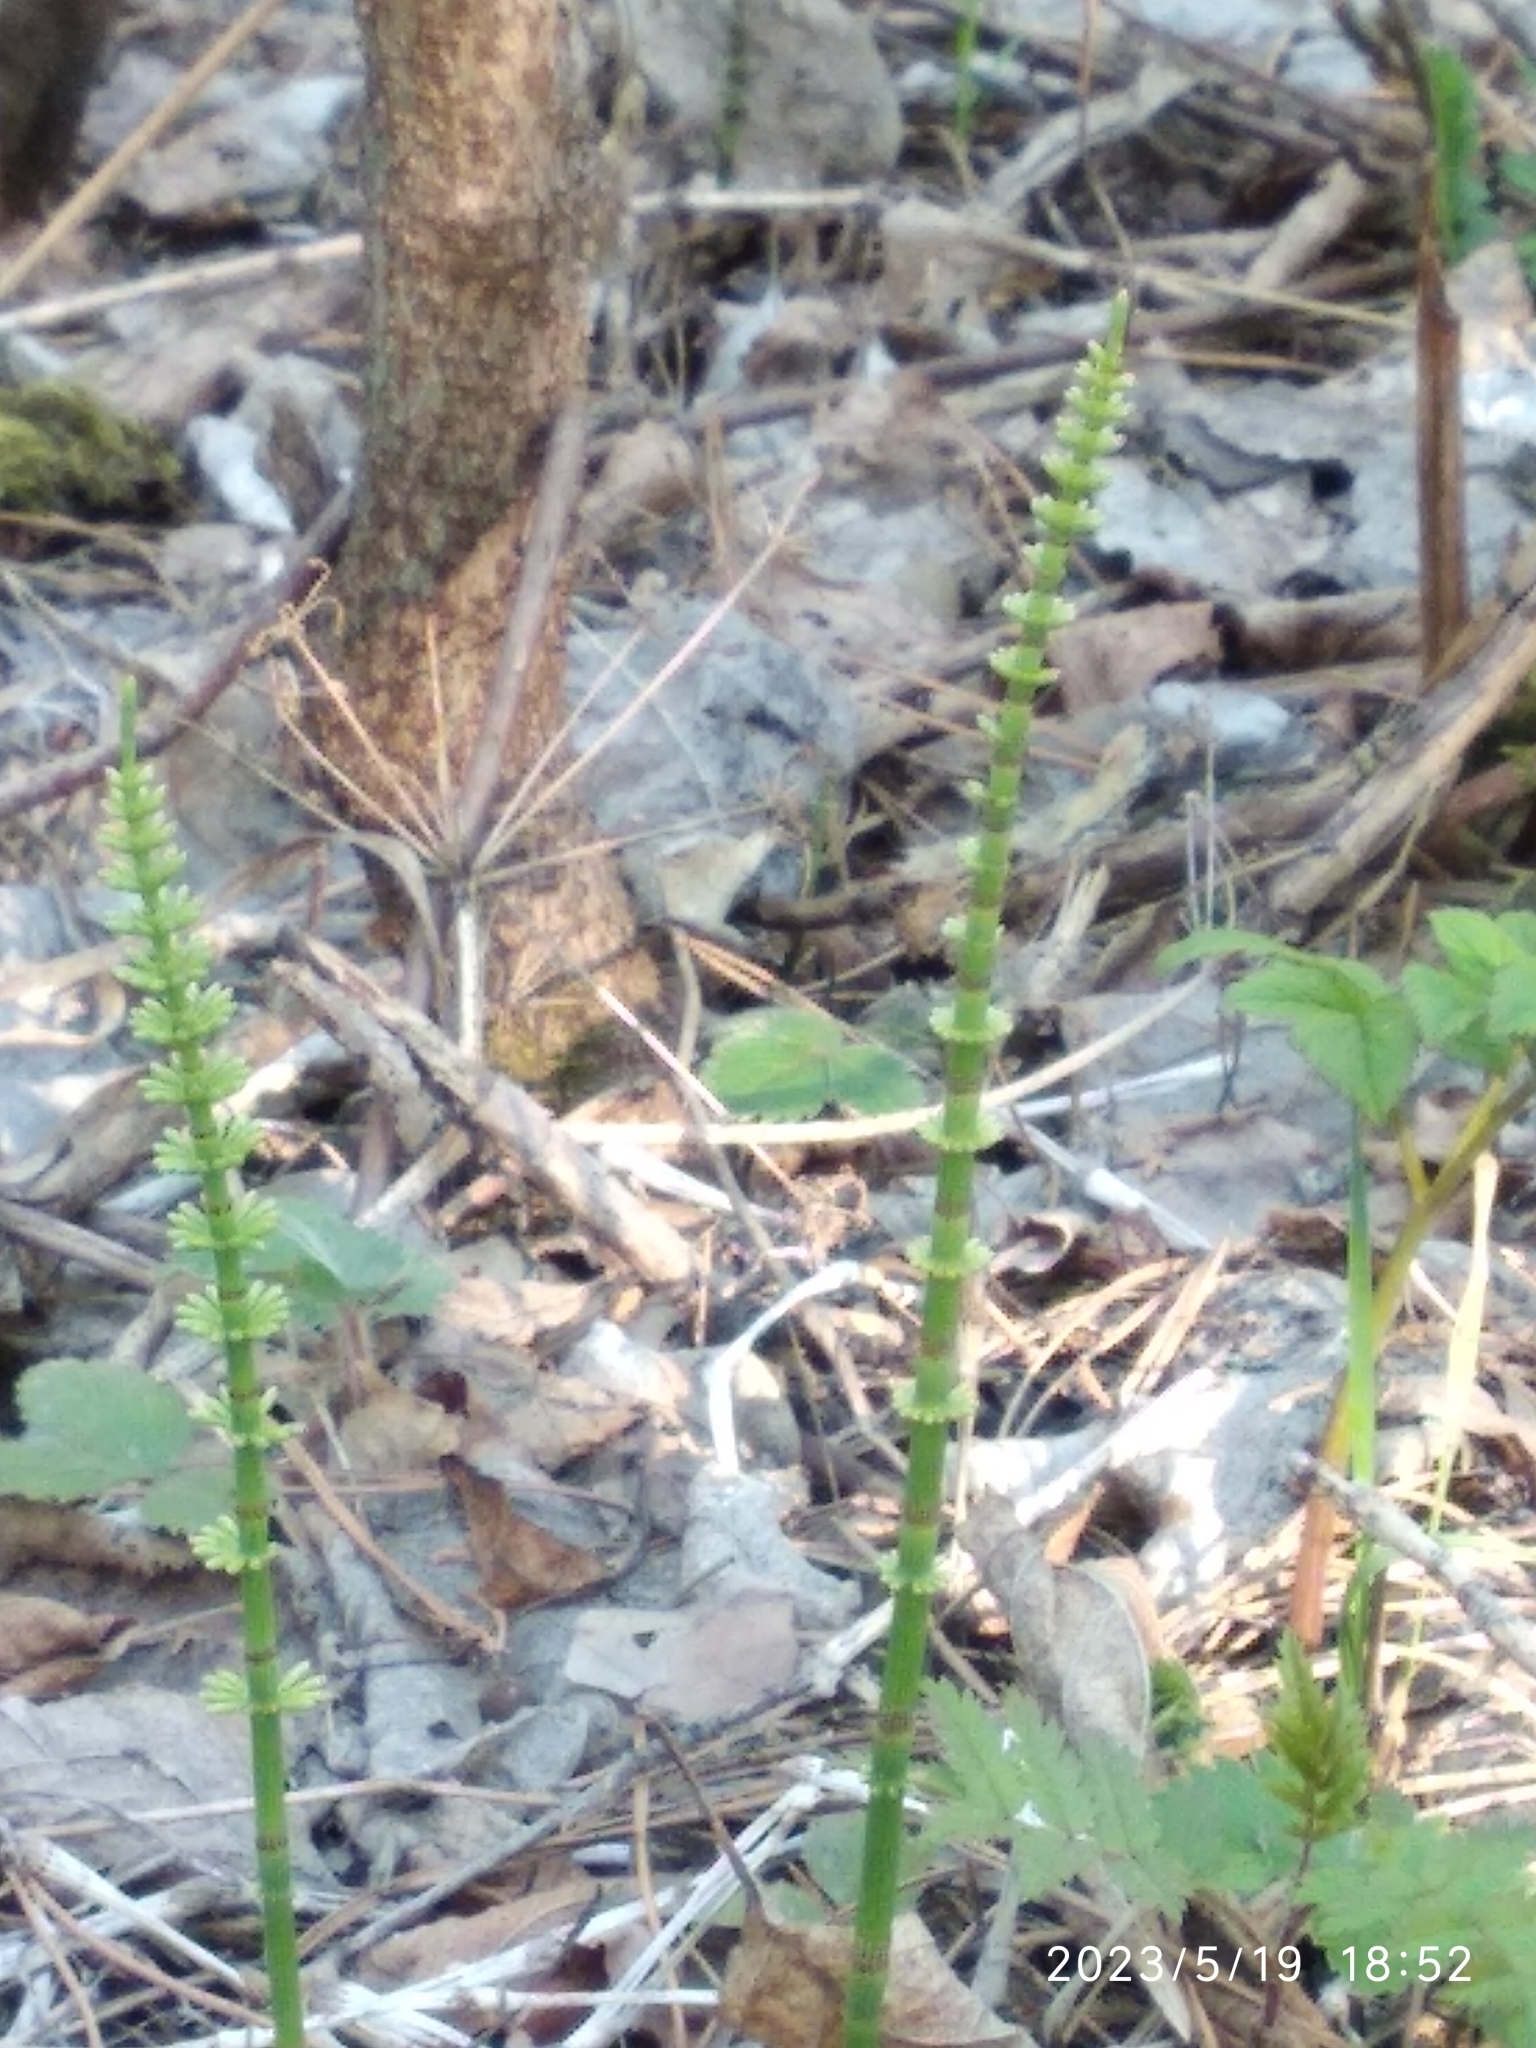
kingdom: Plantae
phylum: Tracheophyta
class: Polypodiopsida
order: Equisetales
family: Equisetaceae
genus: Equisetum
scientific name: Equisetum sylvaticum
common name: Wood horsetail
